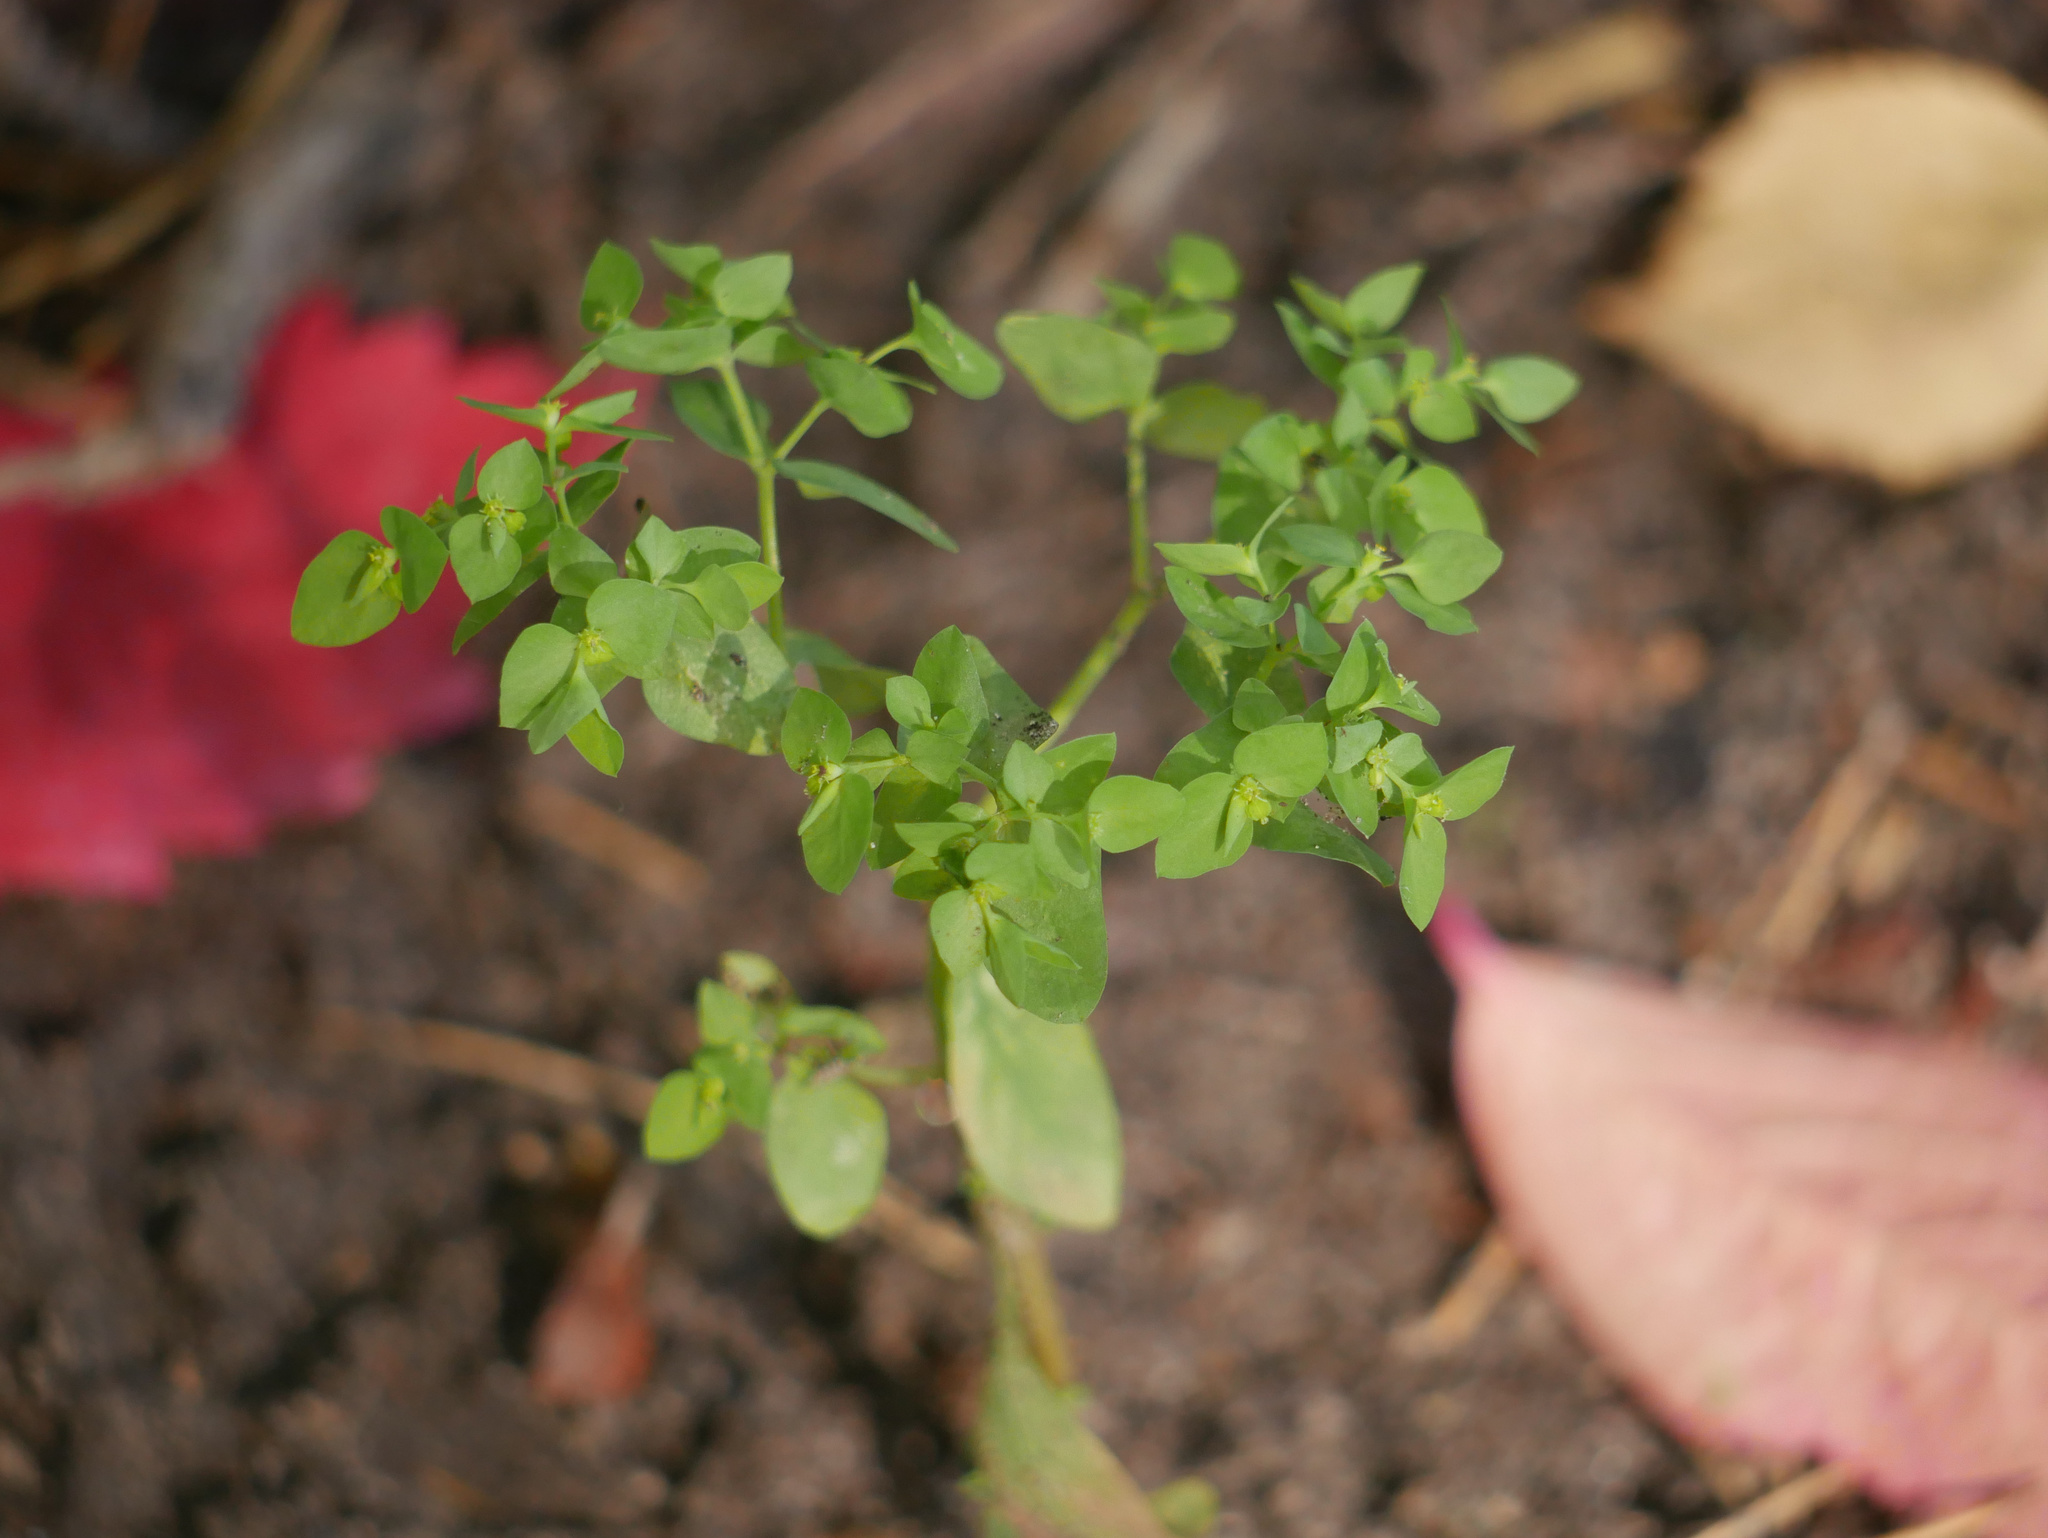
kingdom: Plantae
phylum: Tracheophyta
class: Magnoliopsida
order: Malpighiales
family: Euphorbiaceae
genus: Euphorbia
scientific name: Euphorbia peplus
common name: Petty spurge
